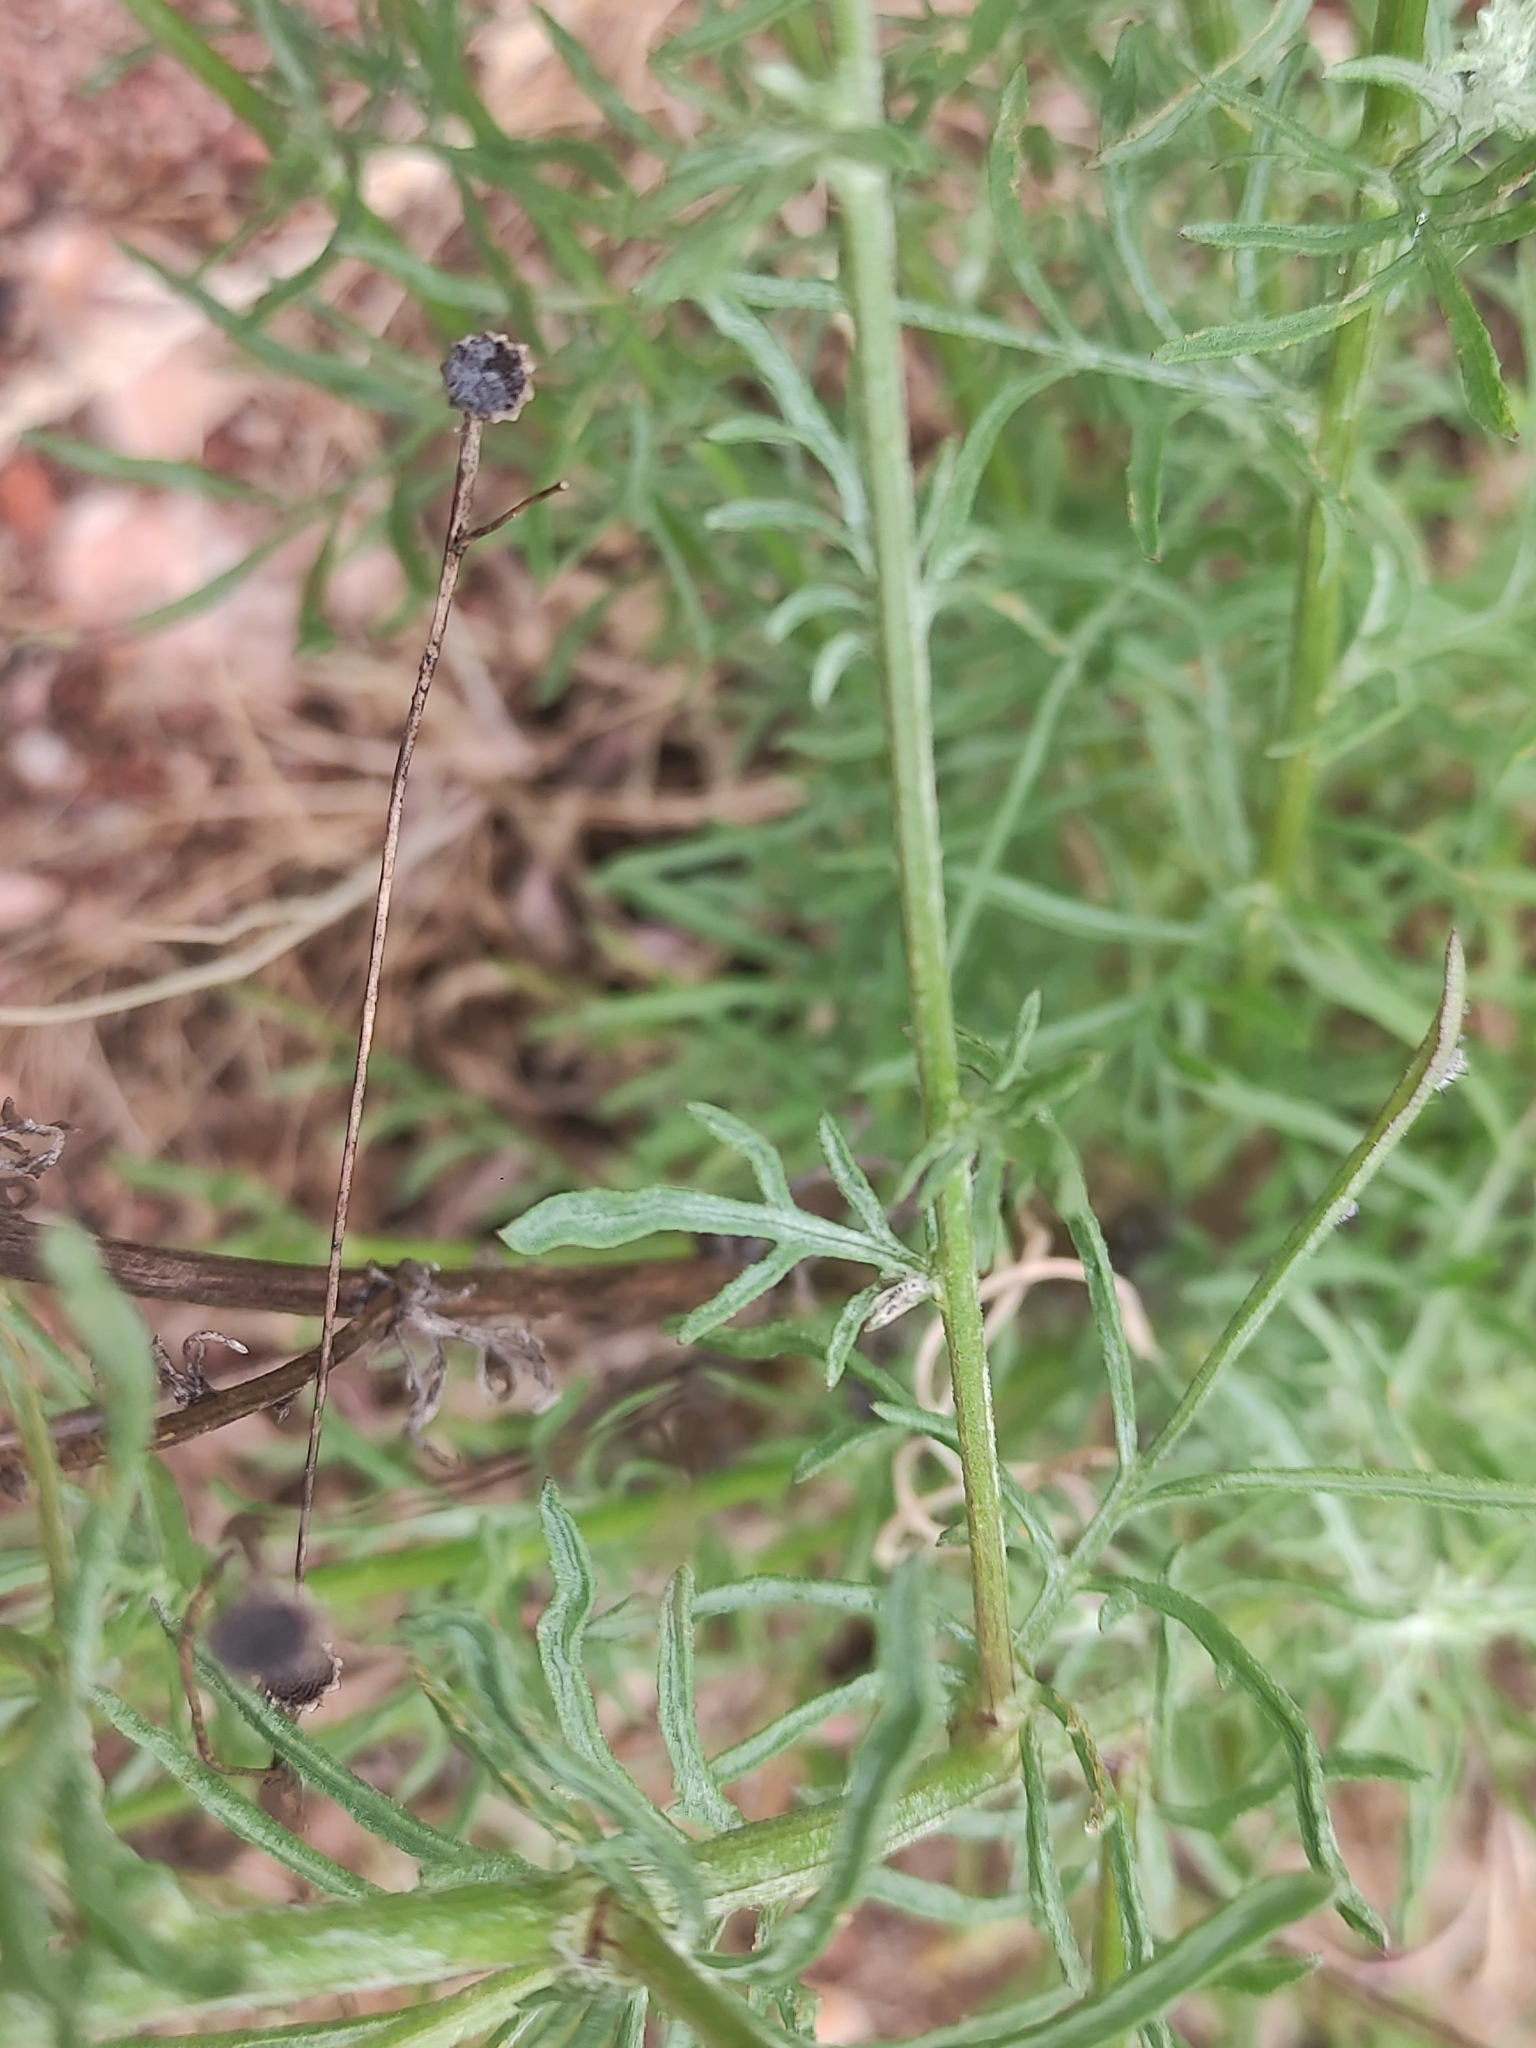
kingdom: Plantae
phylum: Tracheophyta
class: Magnoliopsida
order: Asterales
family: Asteraceae
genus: Centaurea
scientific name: Centaurea paniculata
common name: Jersey knapweed
